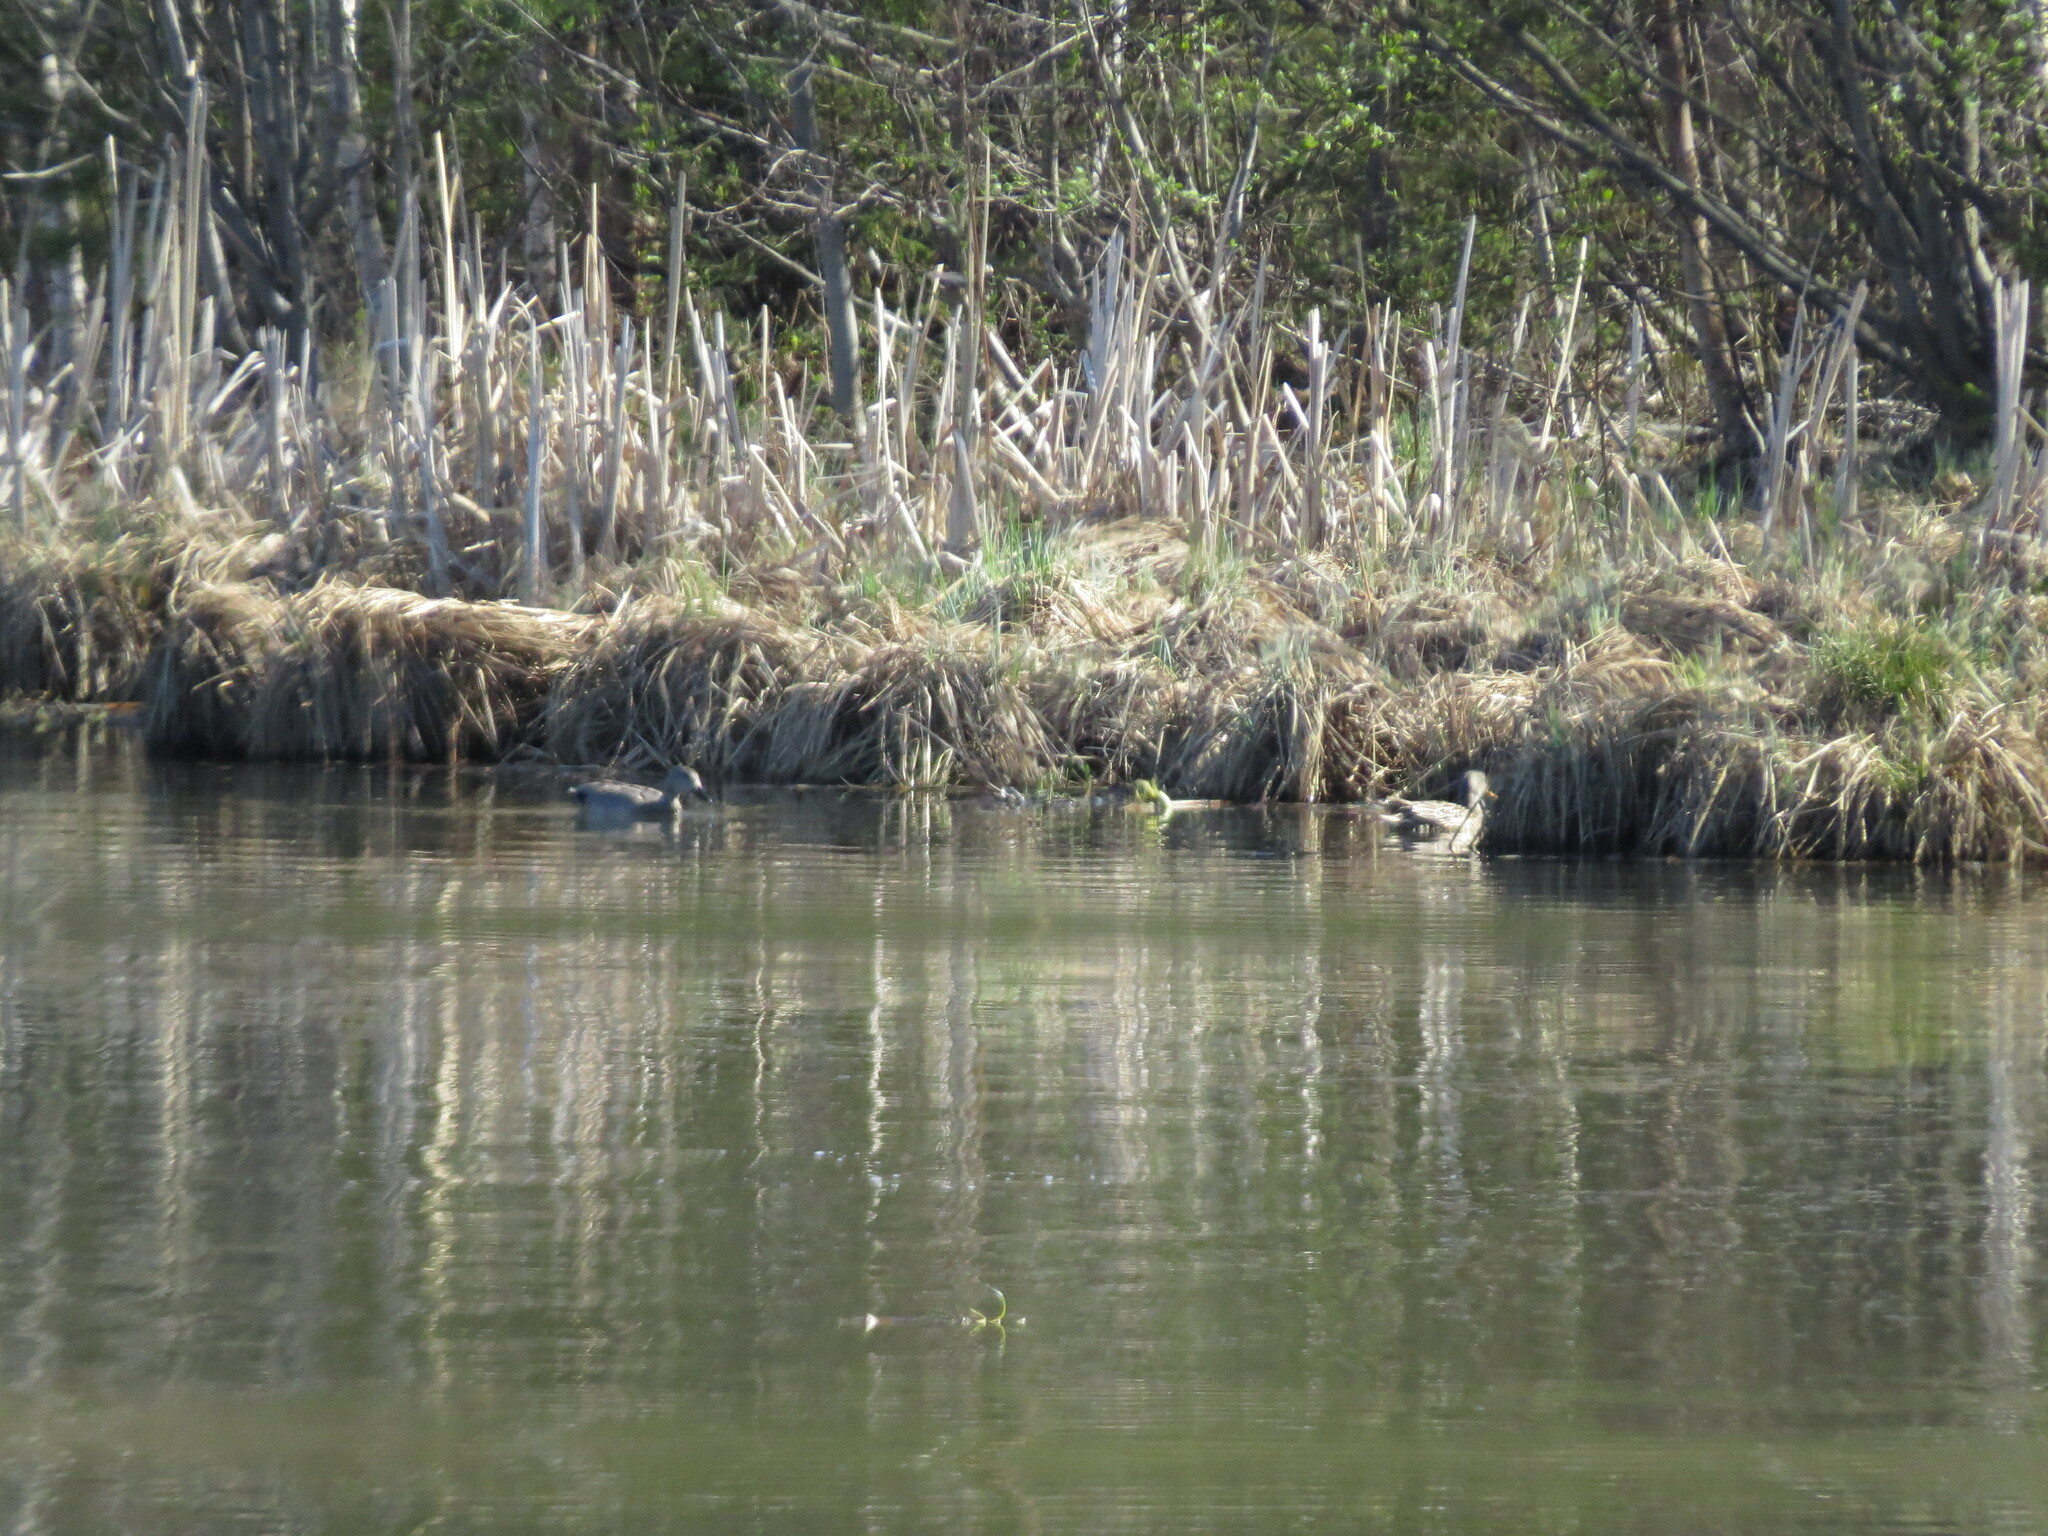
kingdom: Animalia
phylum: Chordata
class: Aves
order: Anseriformes
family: Anatidae
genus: Mareca
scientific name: Mareca strepera
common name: Gadwall
